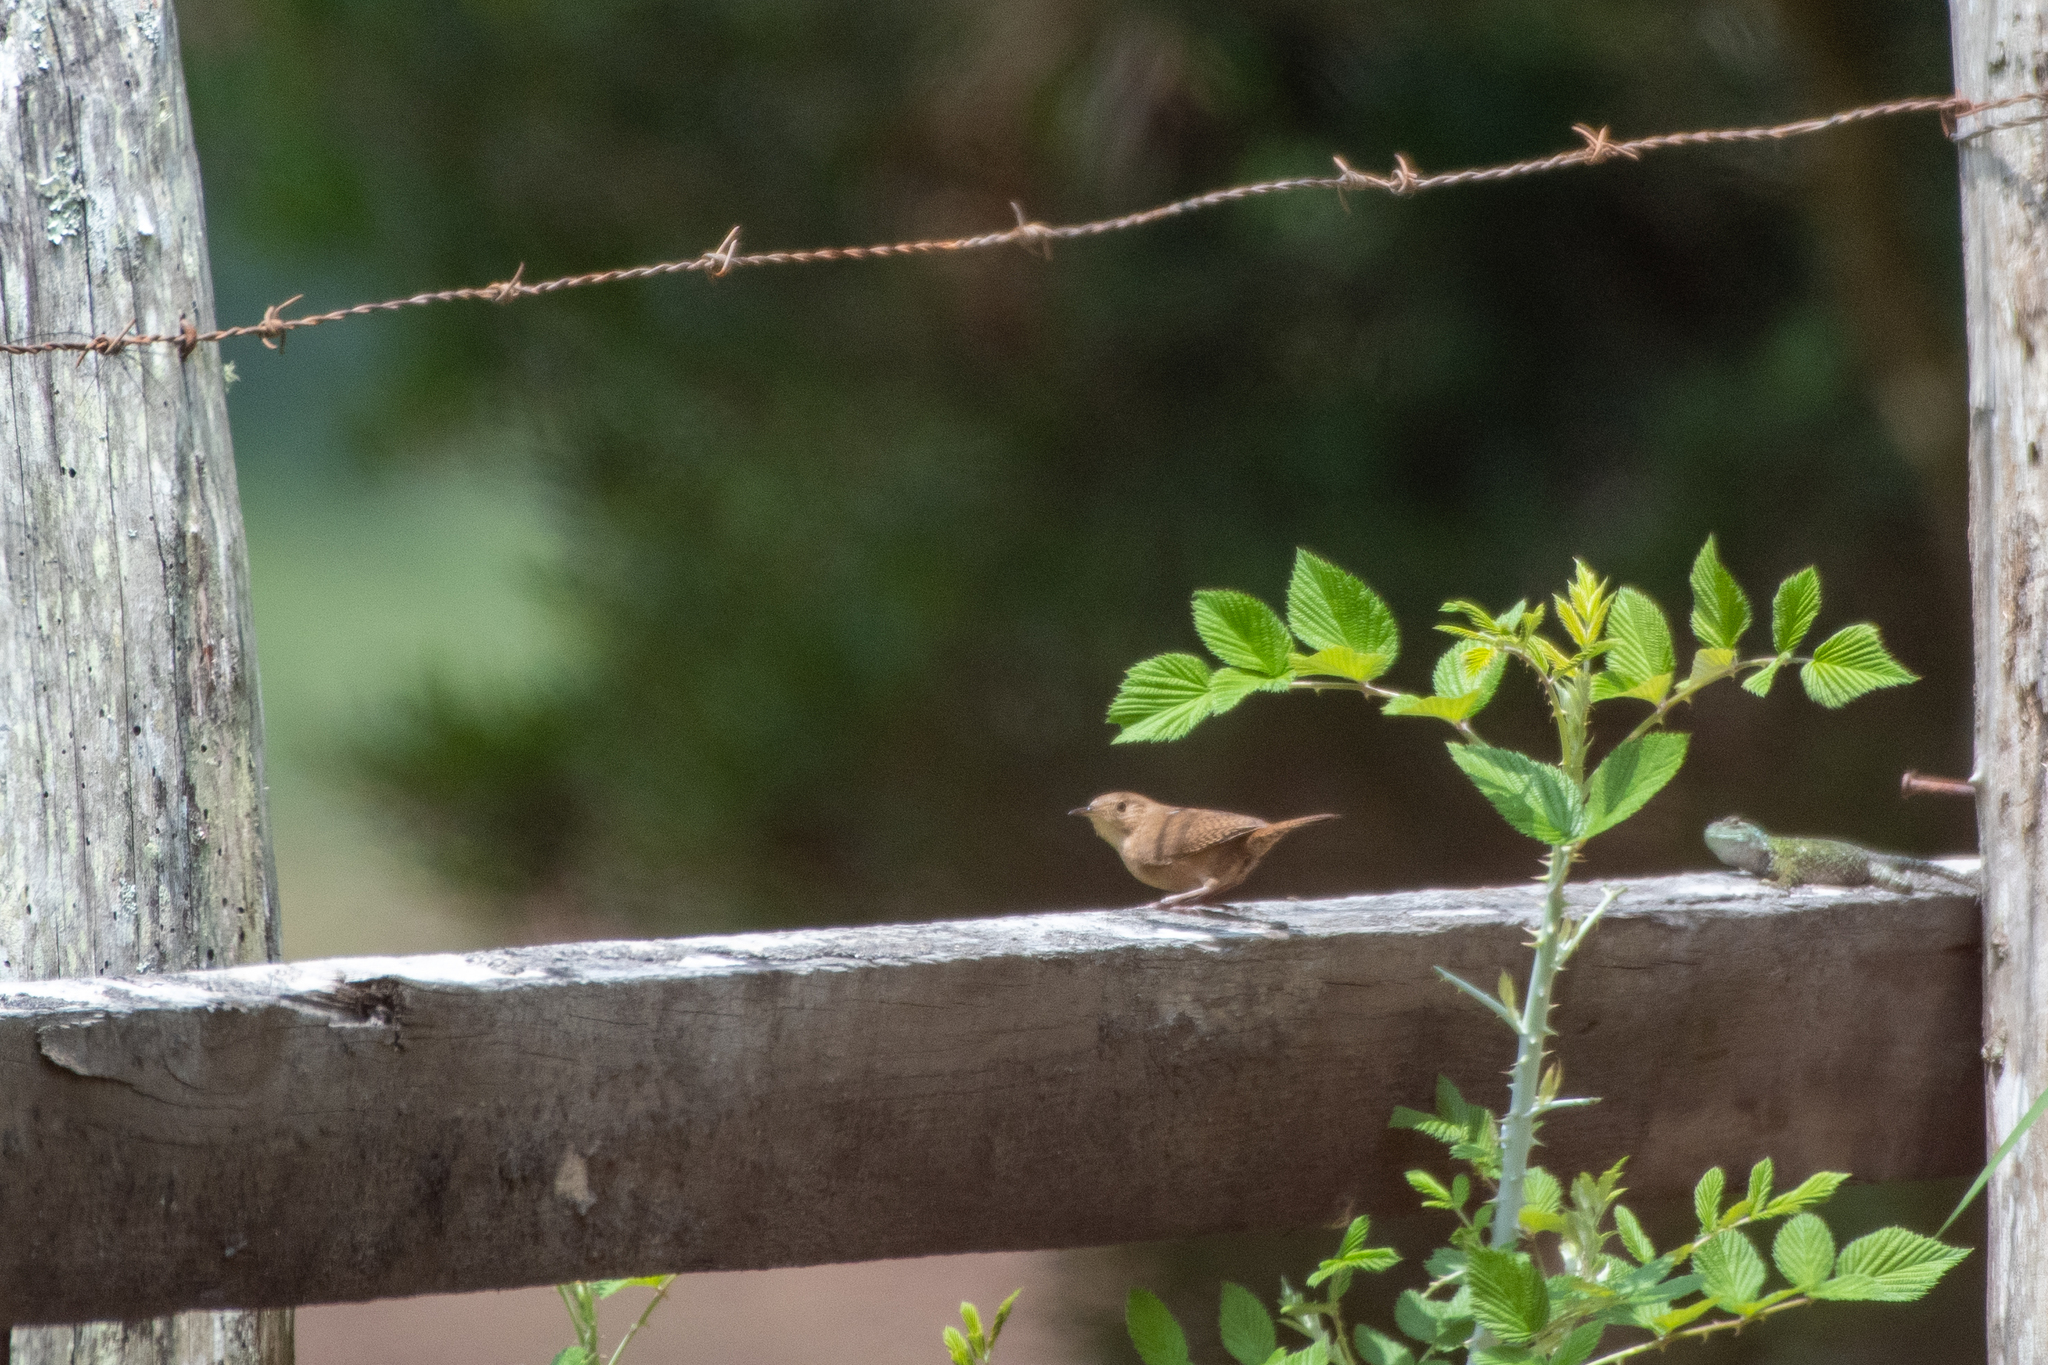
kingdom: Animalia
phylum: Chordata
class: Aves
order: Passeriformes
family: Troglodytidae
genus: Troglodytes
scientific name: Troglodytes aedon
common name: House wren
